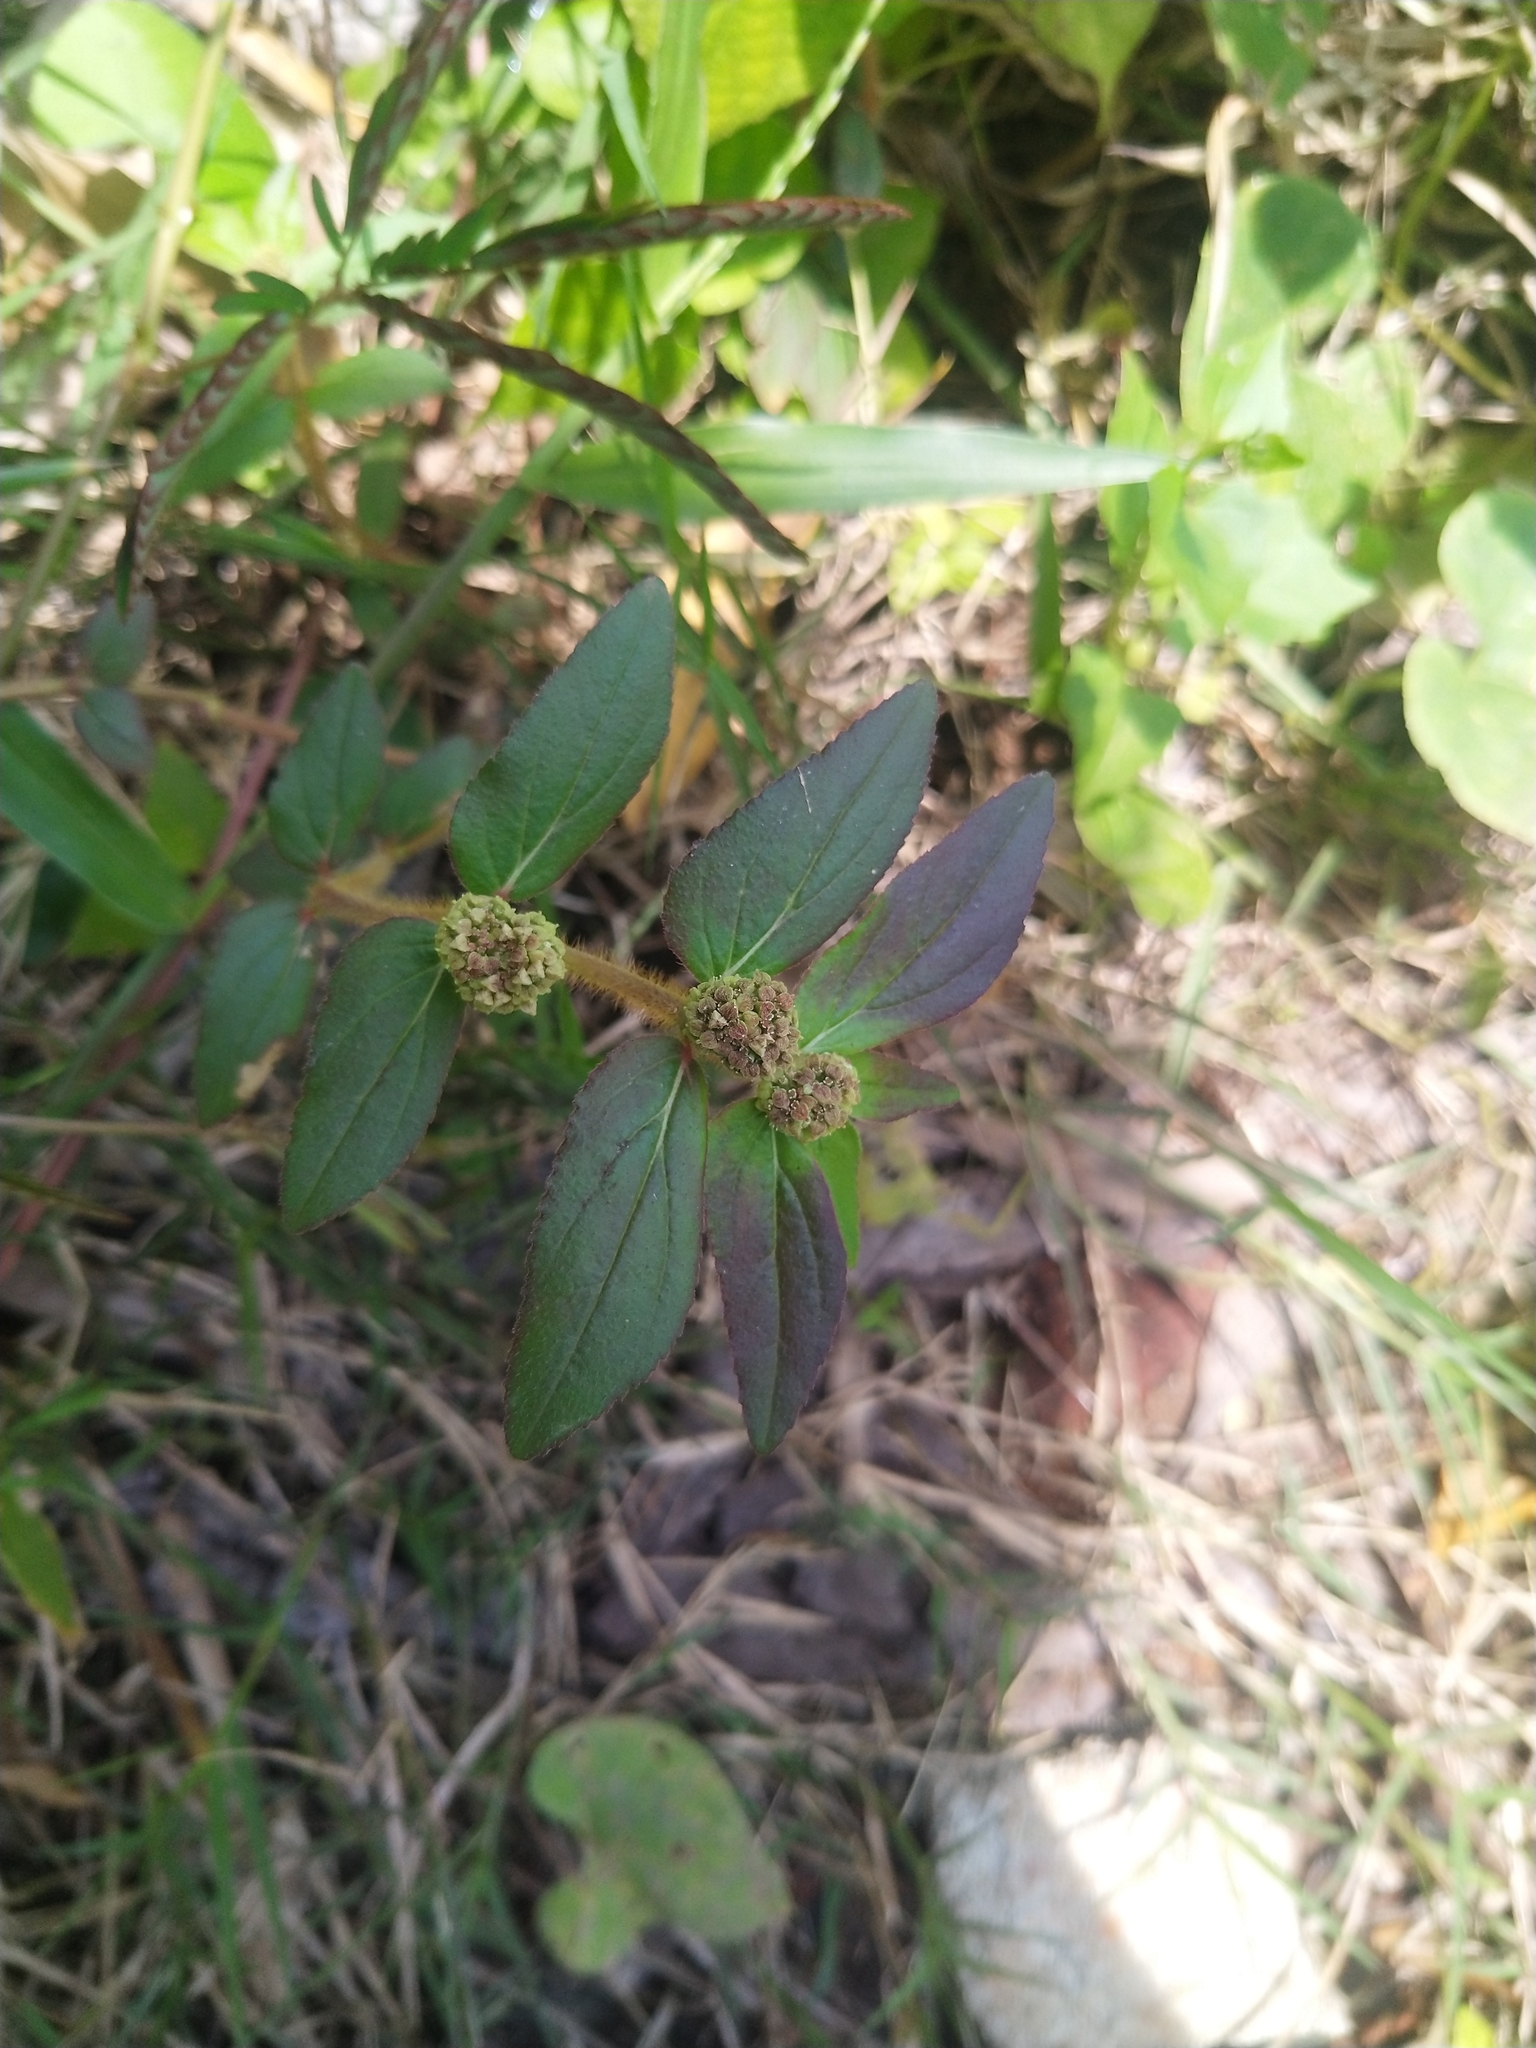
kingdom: Plantae
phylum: Tracheophyta
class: Magnoliopsida
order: Malpighiales
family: Euphorbiaceae
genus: Euphorbia
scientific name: Euphorbia hirta
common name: Pillpod sandmat
